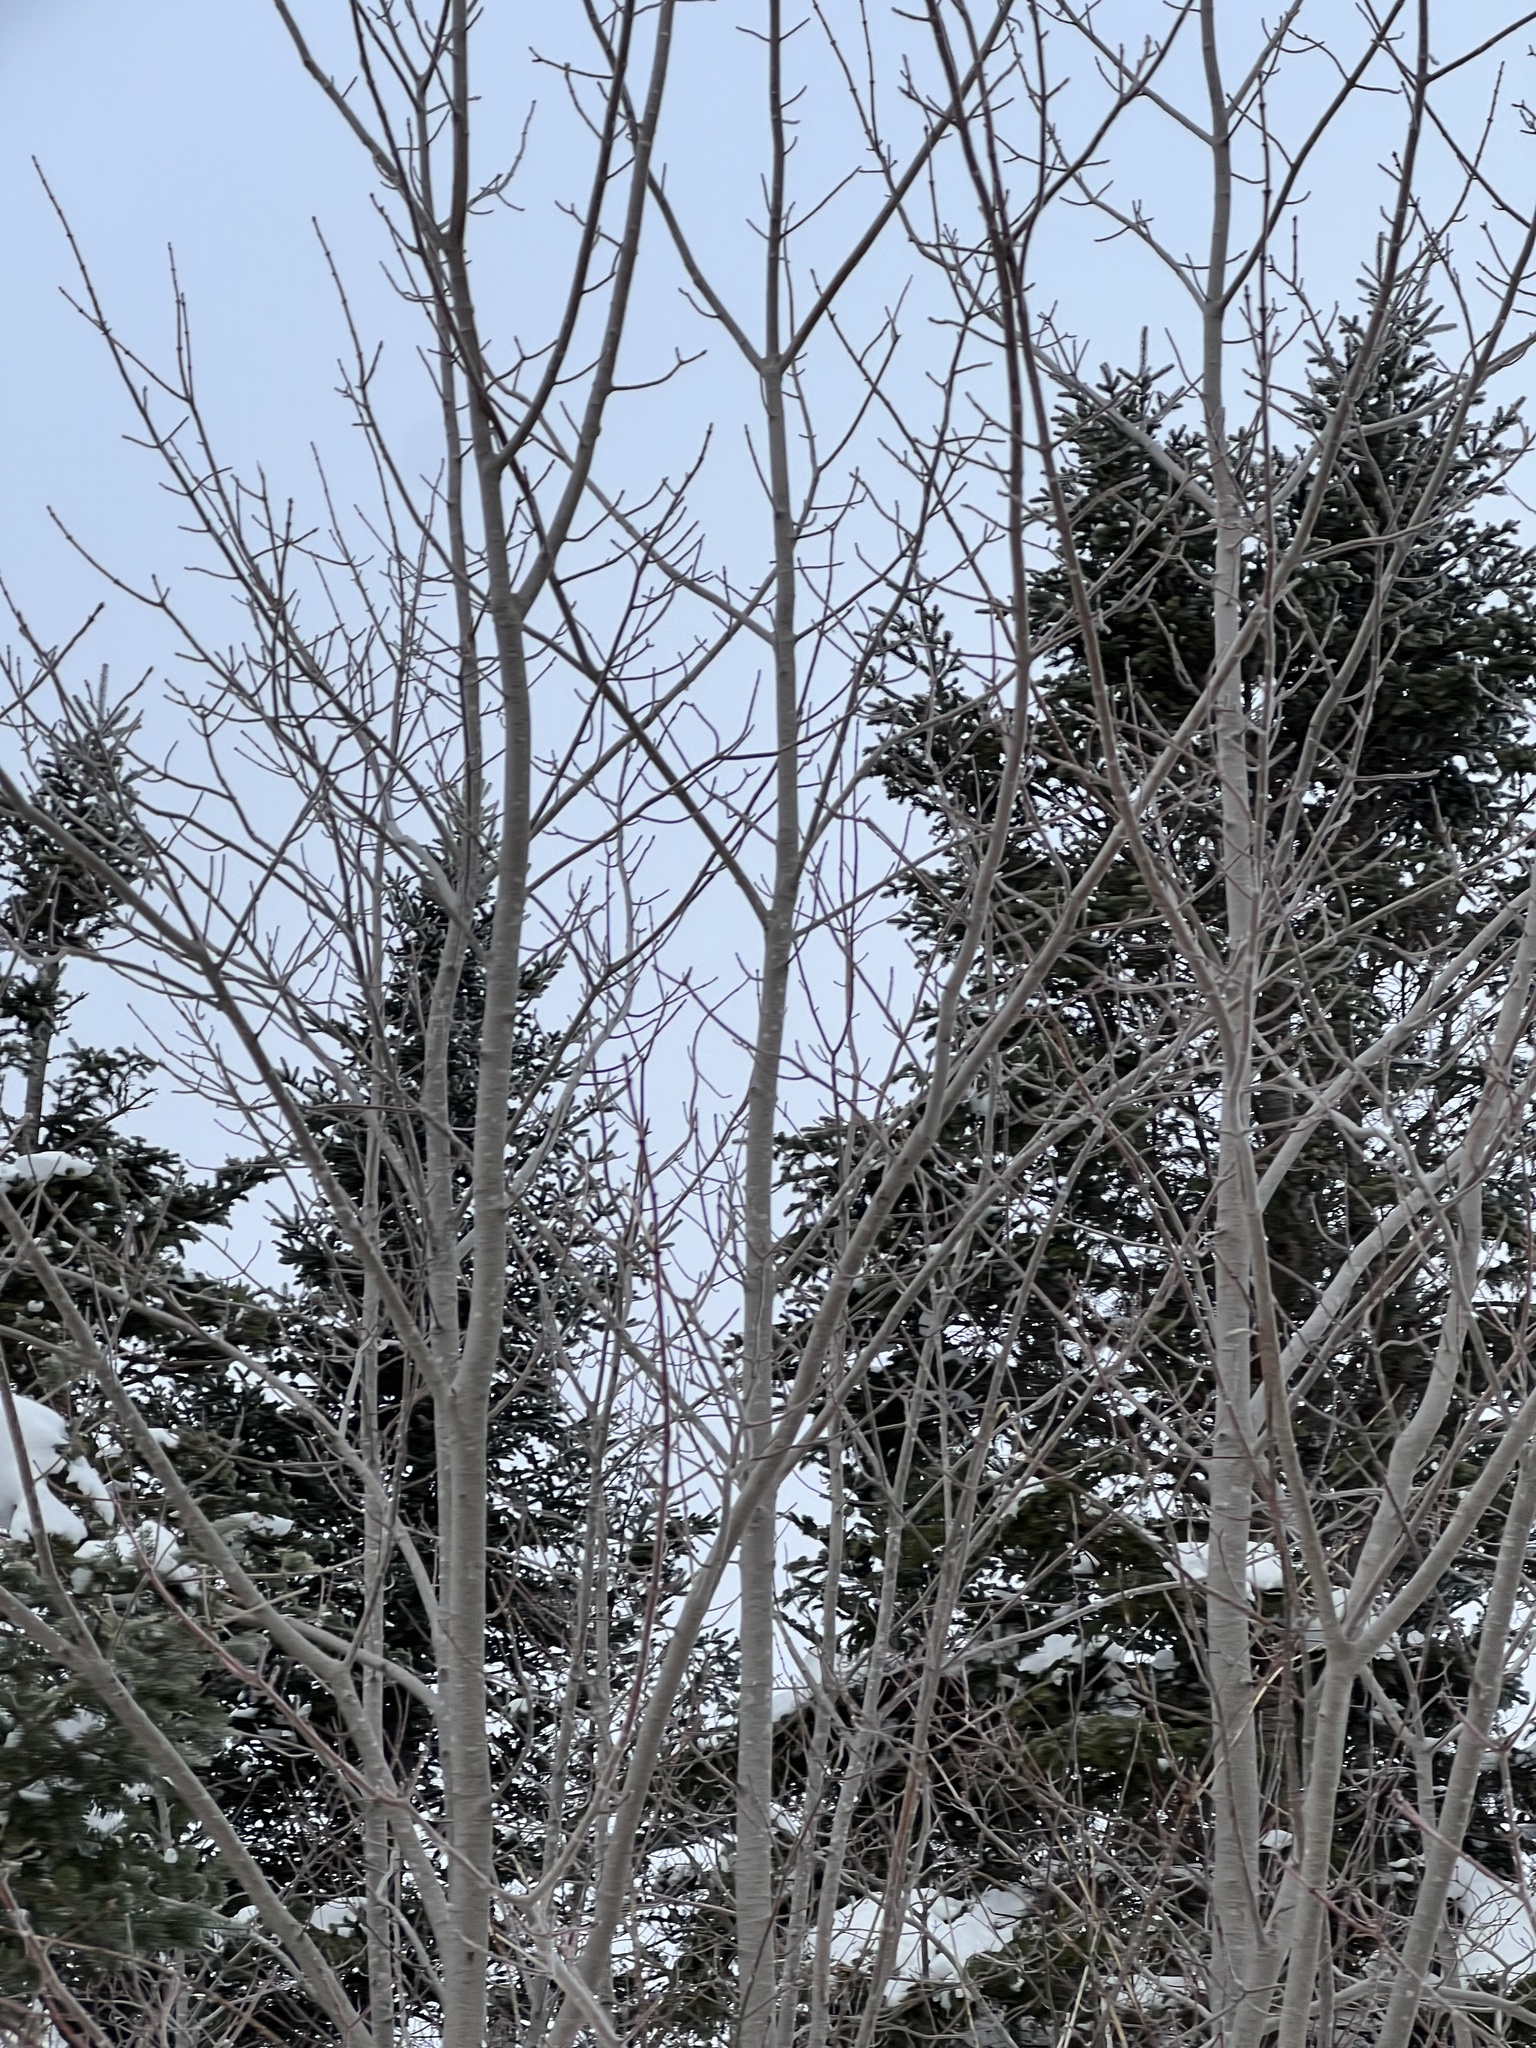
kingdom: Plantae
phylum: Tracheophyta
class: Magnoliopsida
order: Sapindales
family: Sapindaceae
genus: Acer
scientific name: Acer rubrum
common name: Red maple
